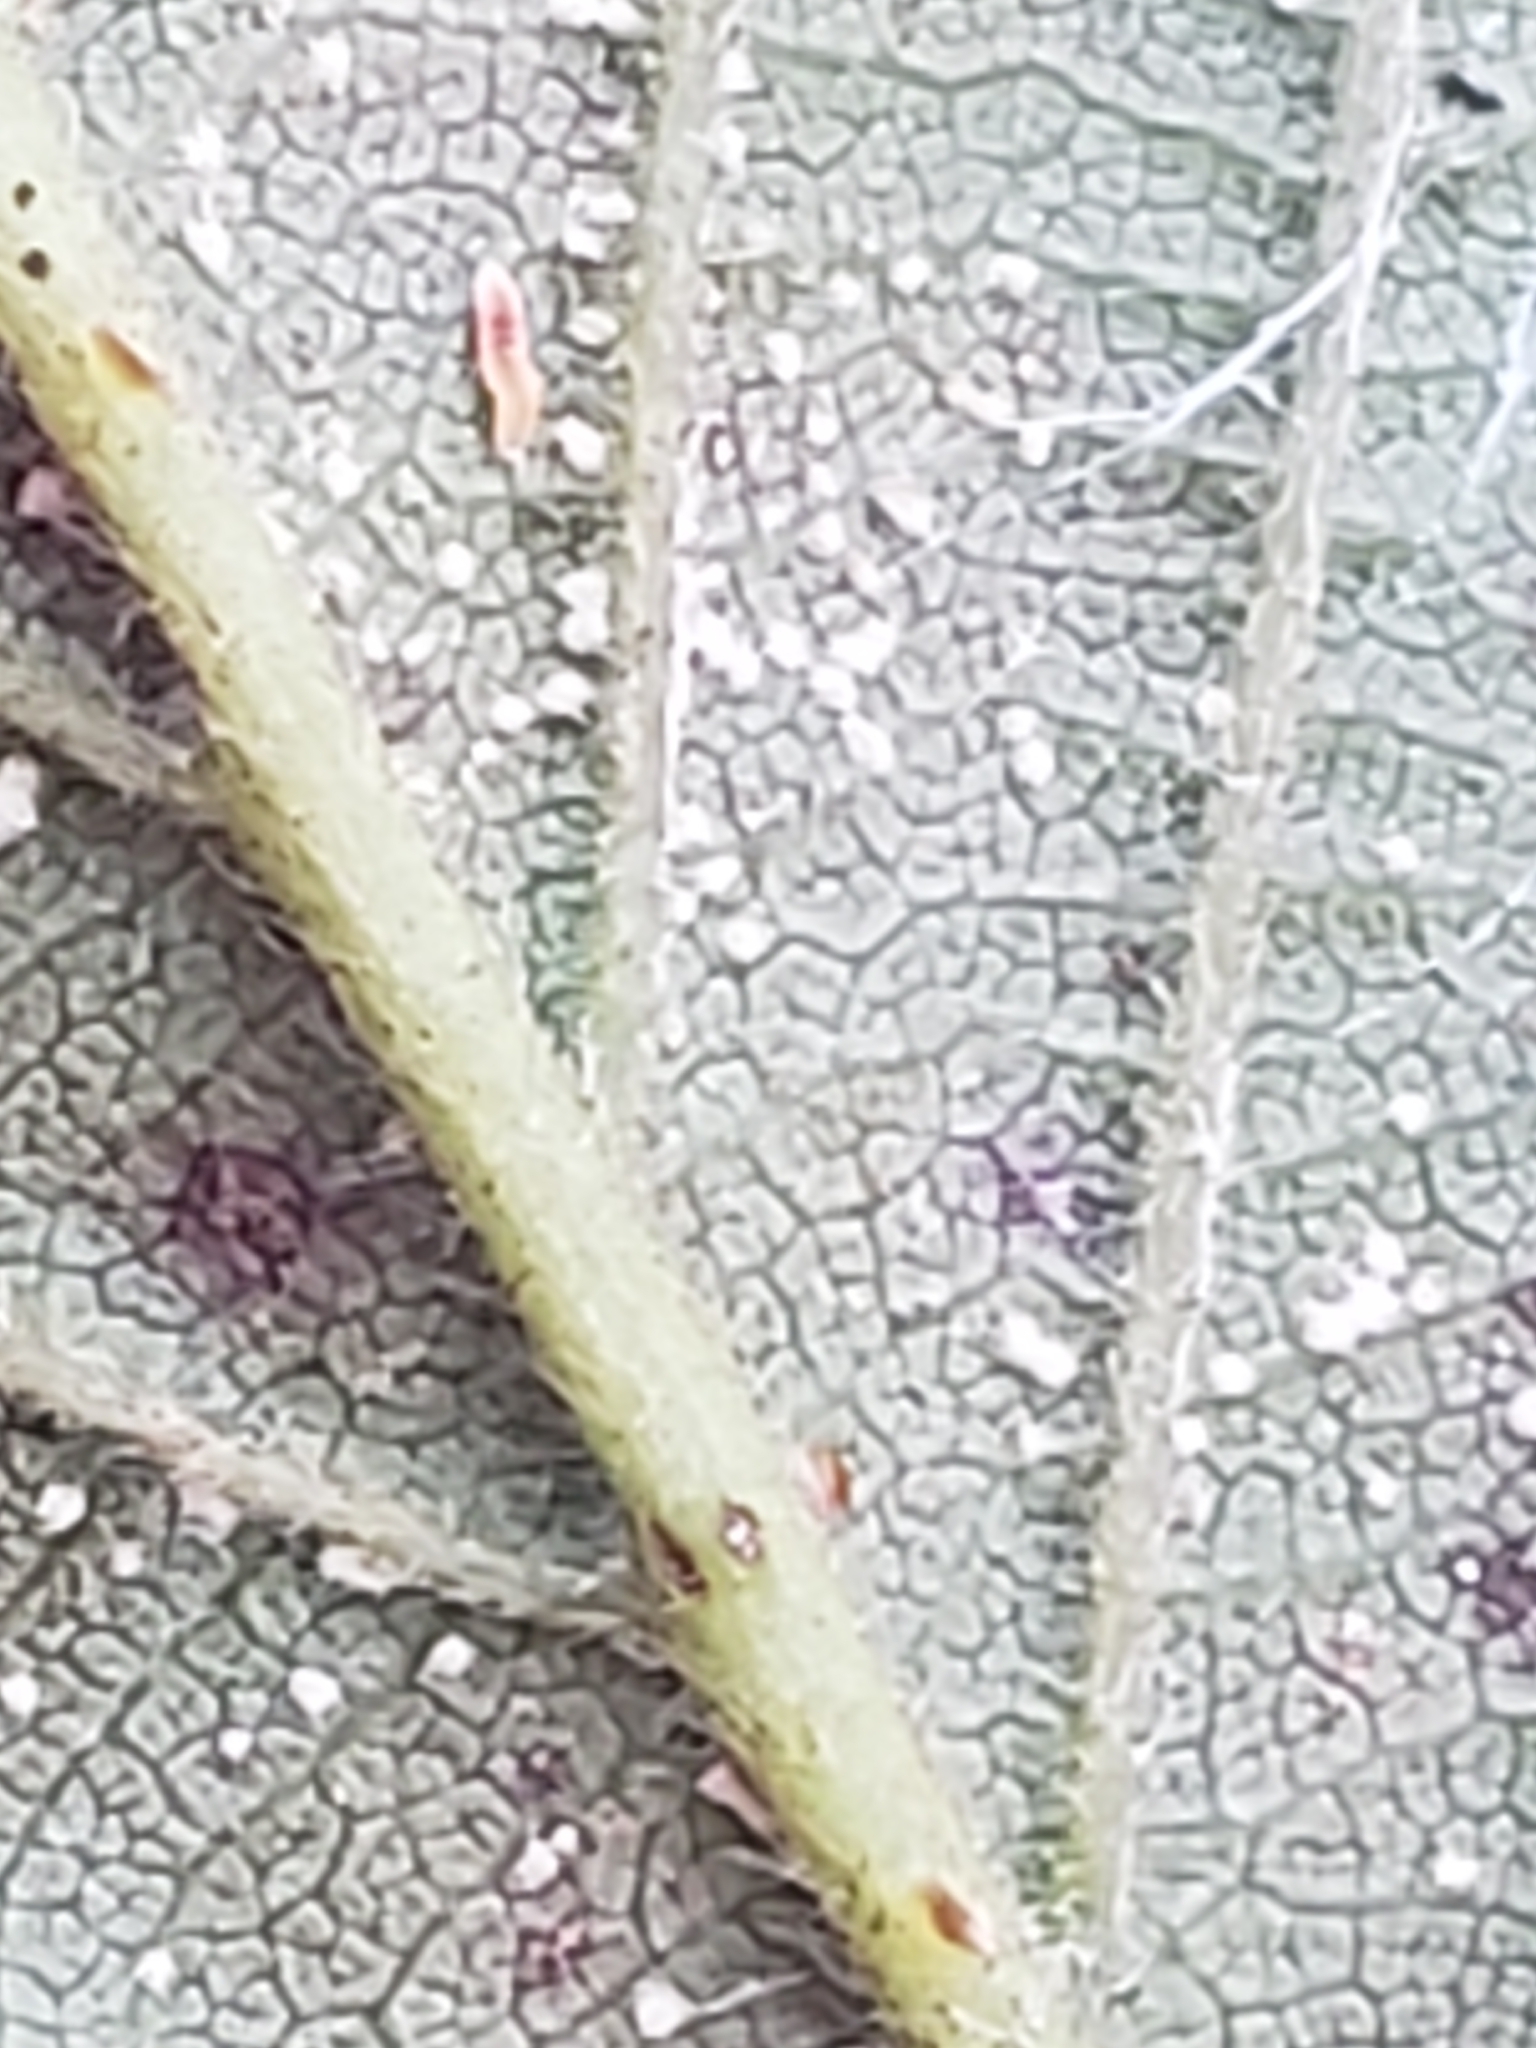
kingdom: Fungi
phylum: Basidiomycota
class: Pucciniomycetes
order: Pucciniales
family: Phragmidiaceae
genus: Kuehneola
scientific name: Kuehneola uredinis
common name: Bramble stem rust
